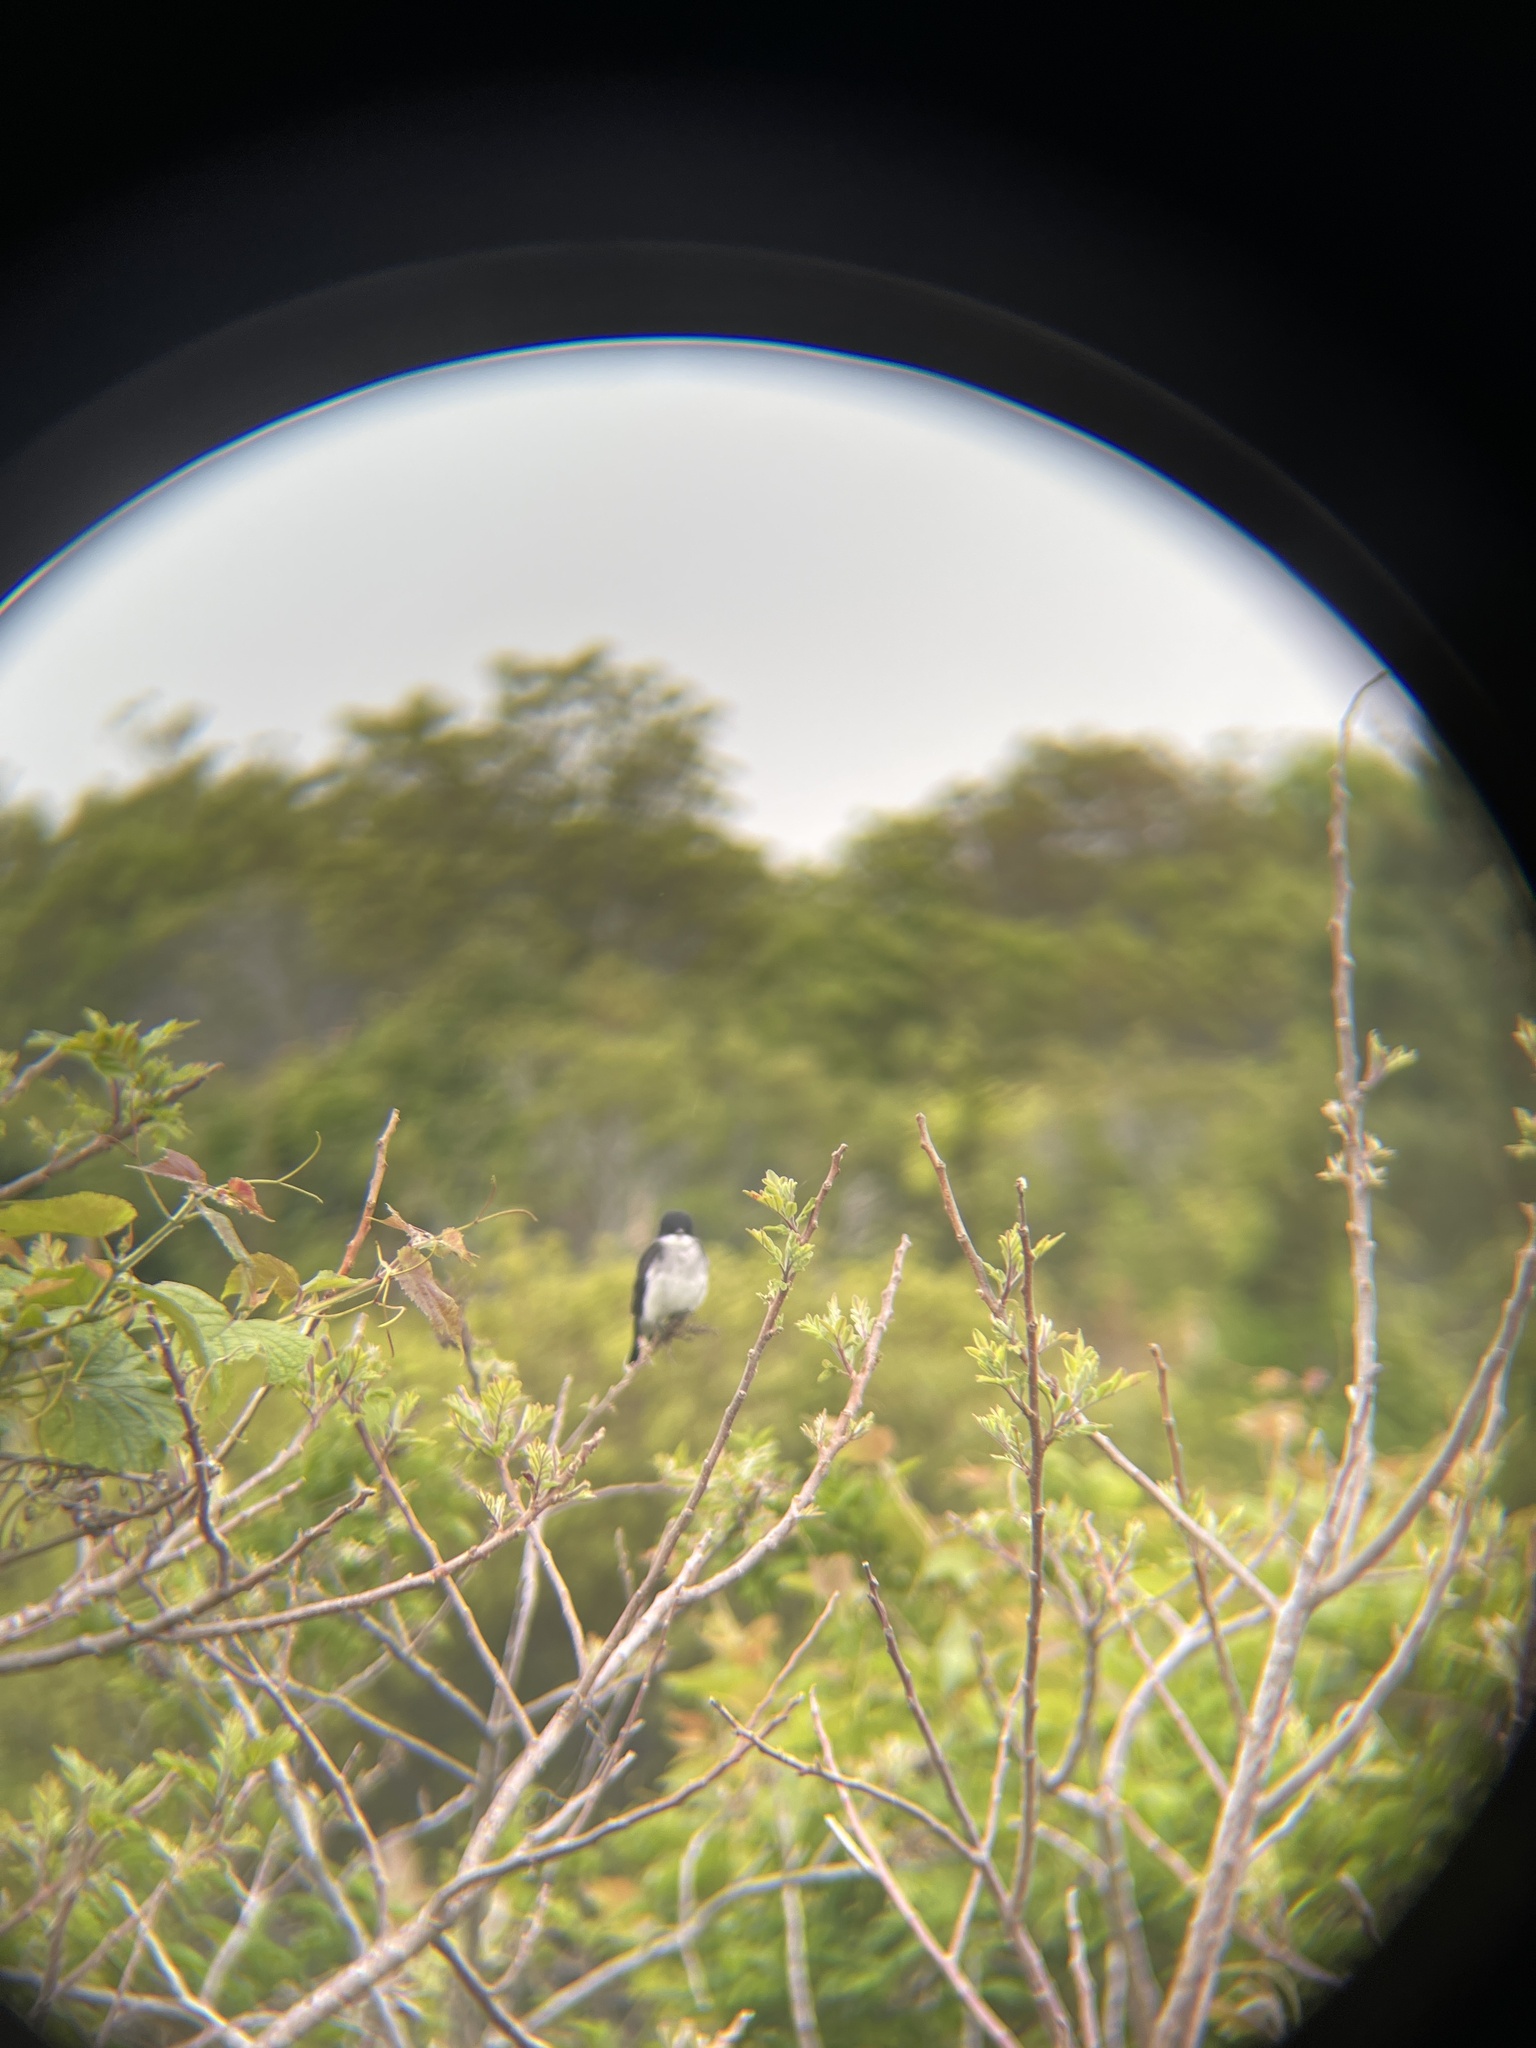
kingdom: Animalia
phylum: Chordata
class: Aves
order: Passeriformes
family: Tyrannidae
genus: Tyrannus
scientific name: Tyrannus tyrannus
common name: Eastern kingbird
